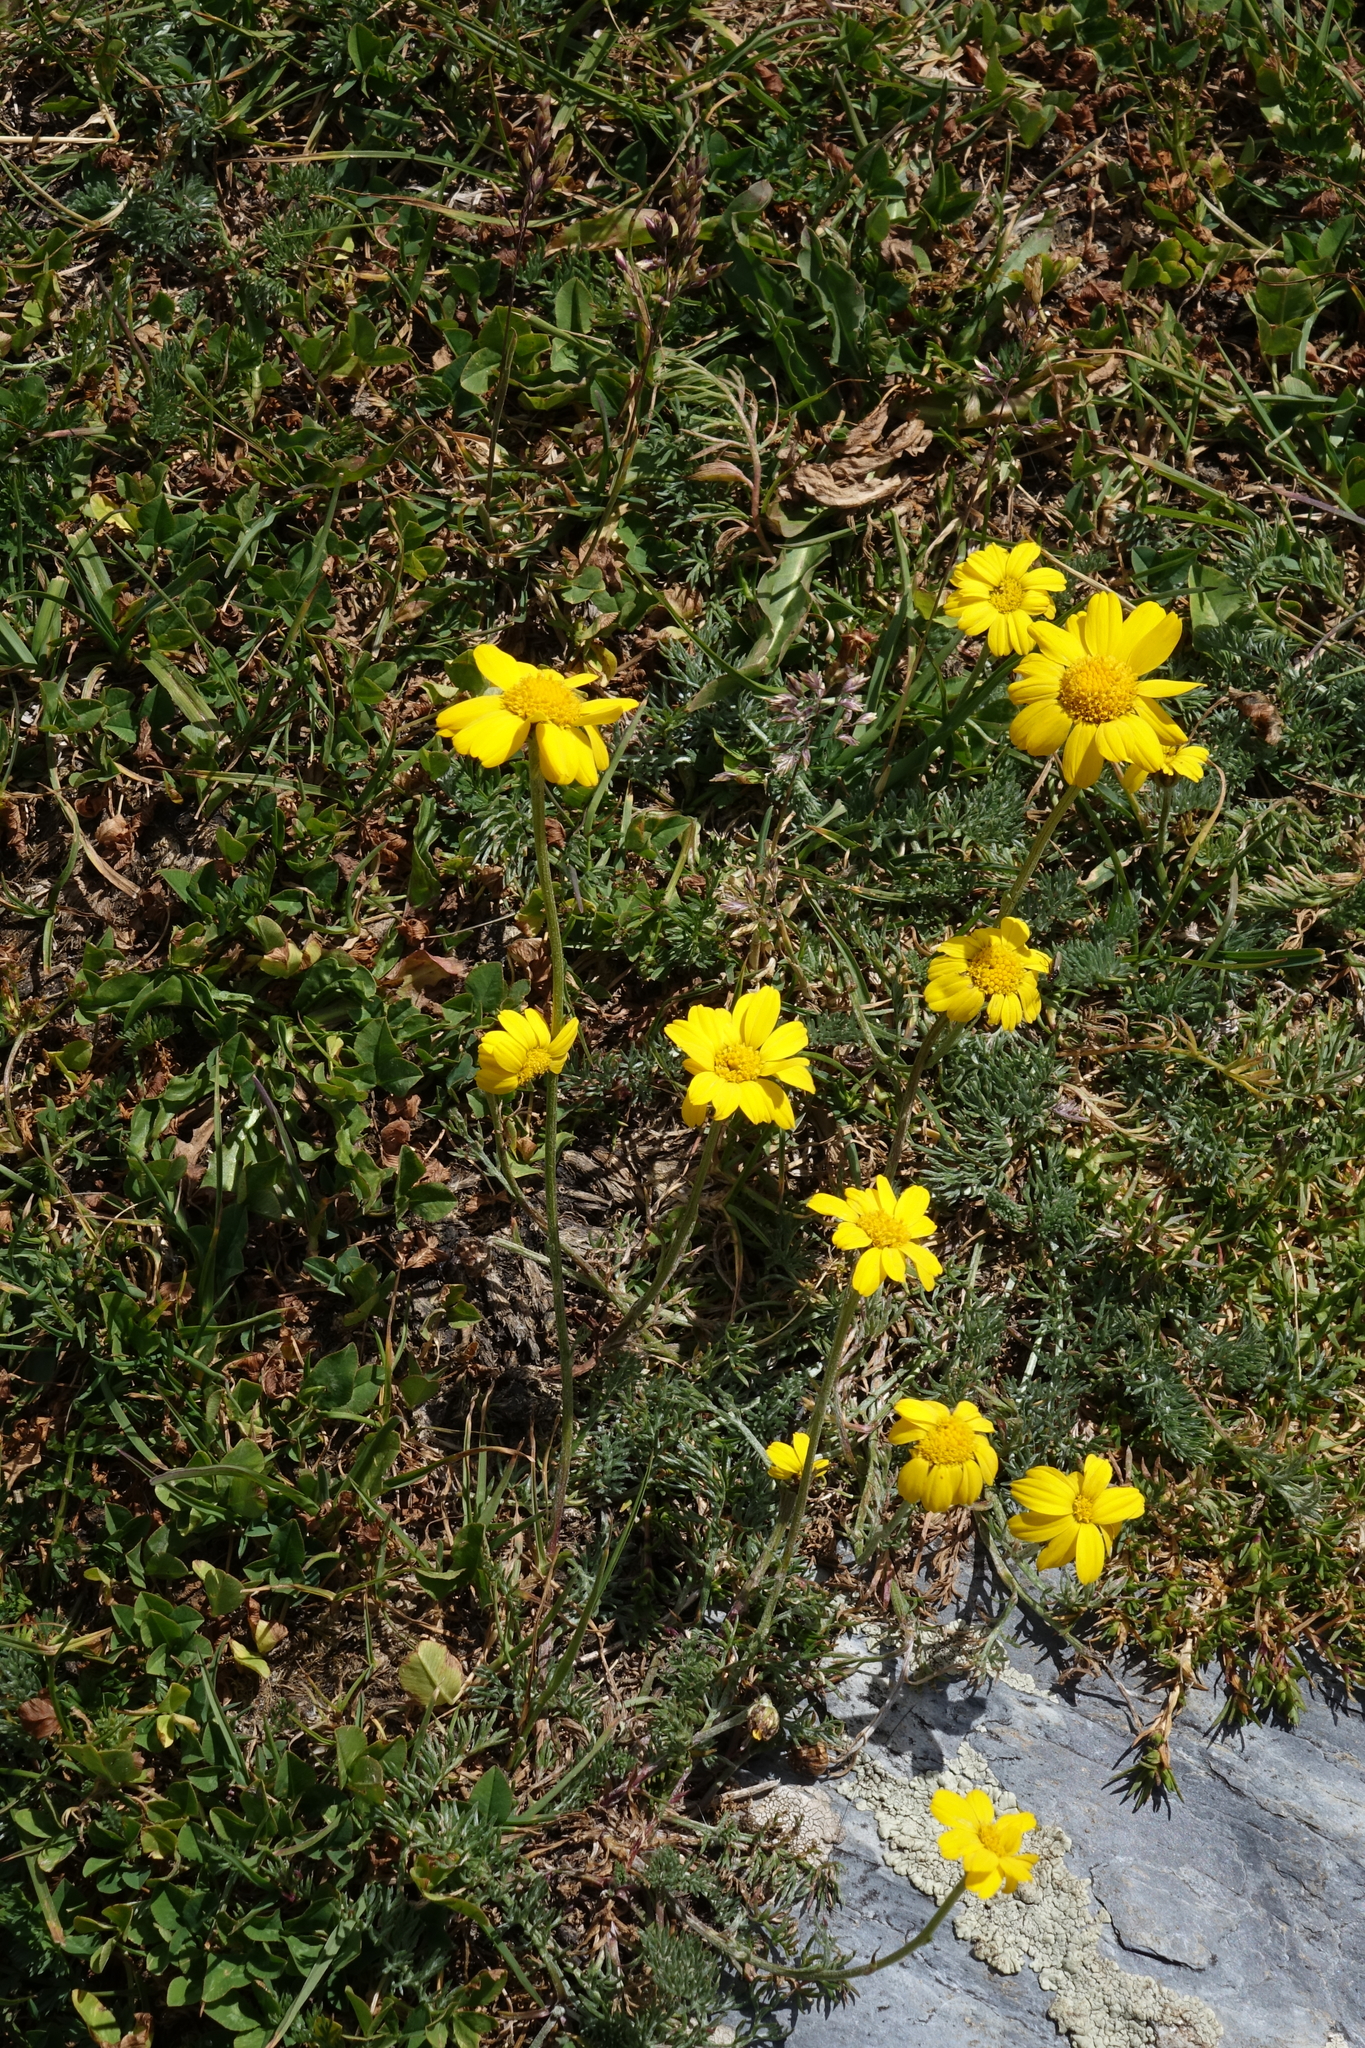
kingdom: Plantae
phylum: Tracheophyta
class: Magnoliopsida
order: Asterales
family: Asteraceae
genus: Archanthemis
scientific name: Archanthemis marschalliana
